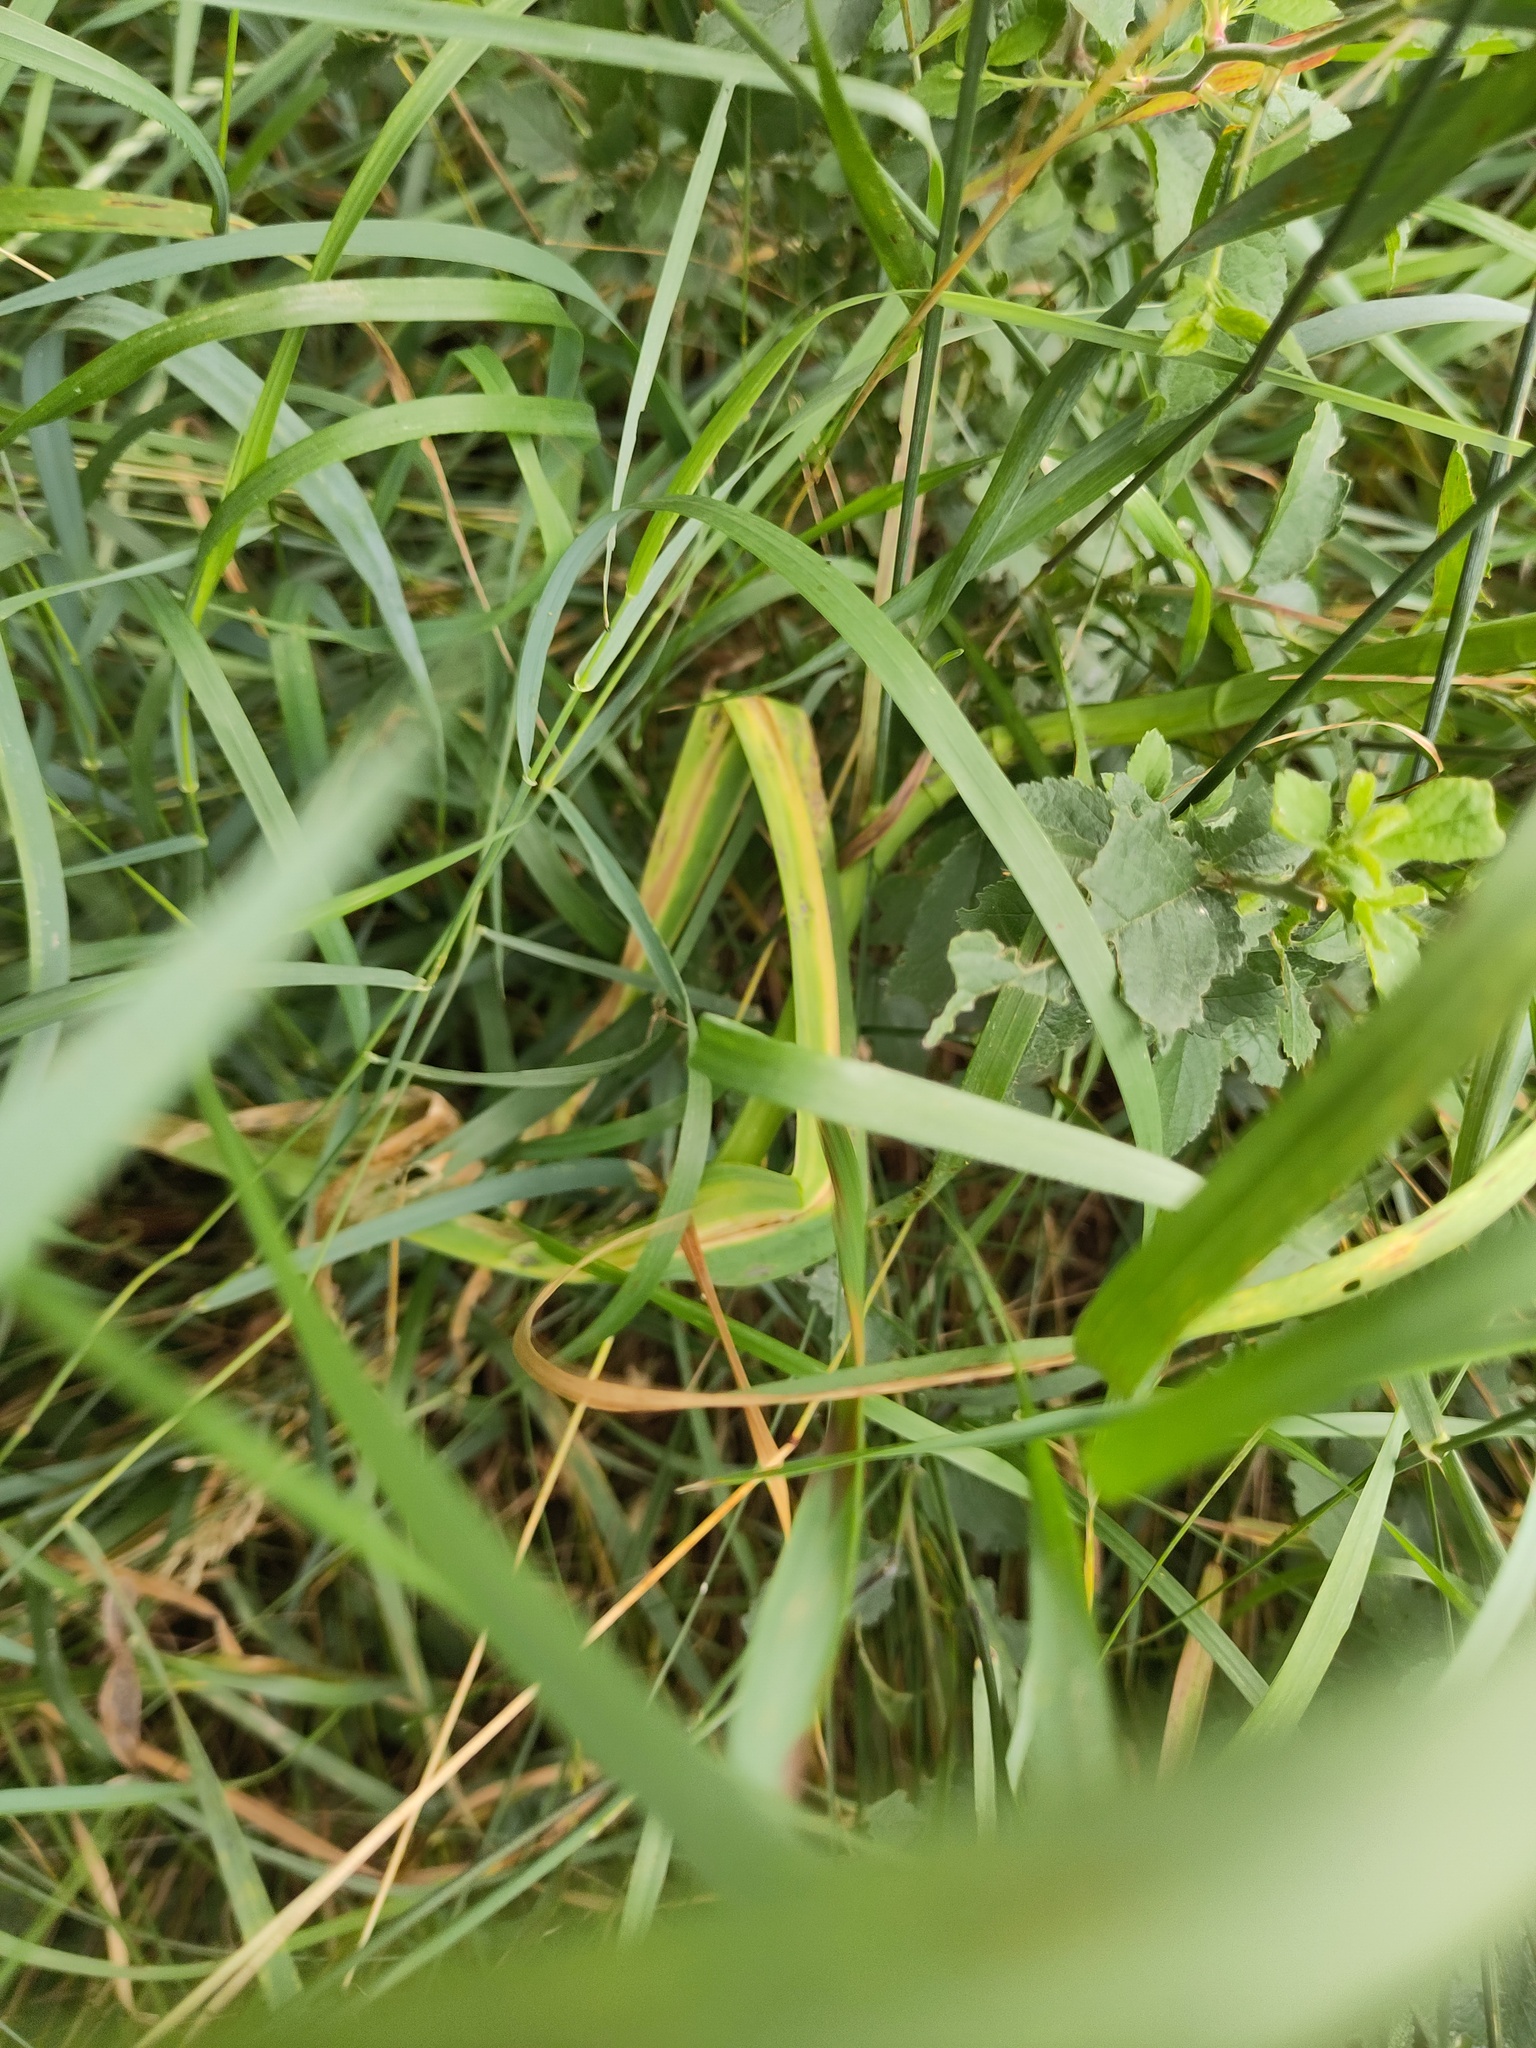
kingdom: Plantae
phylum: Tracheophyta
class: Liliopsida
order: Asparagales
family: Amaryllidaceae
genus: Allium
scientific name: Allium scorodoprasum
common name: Sand leek
